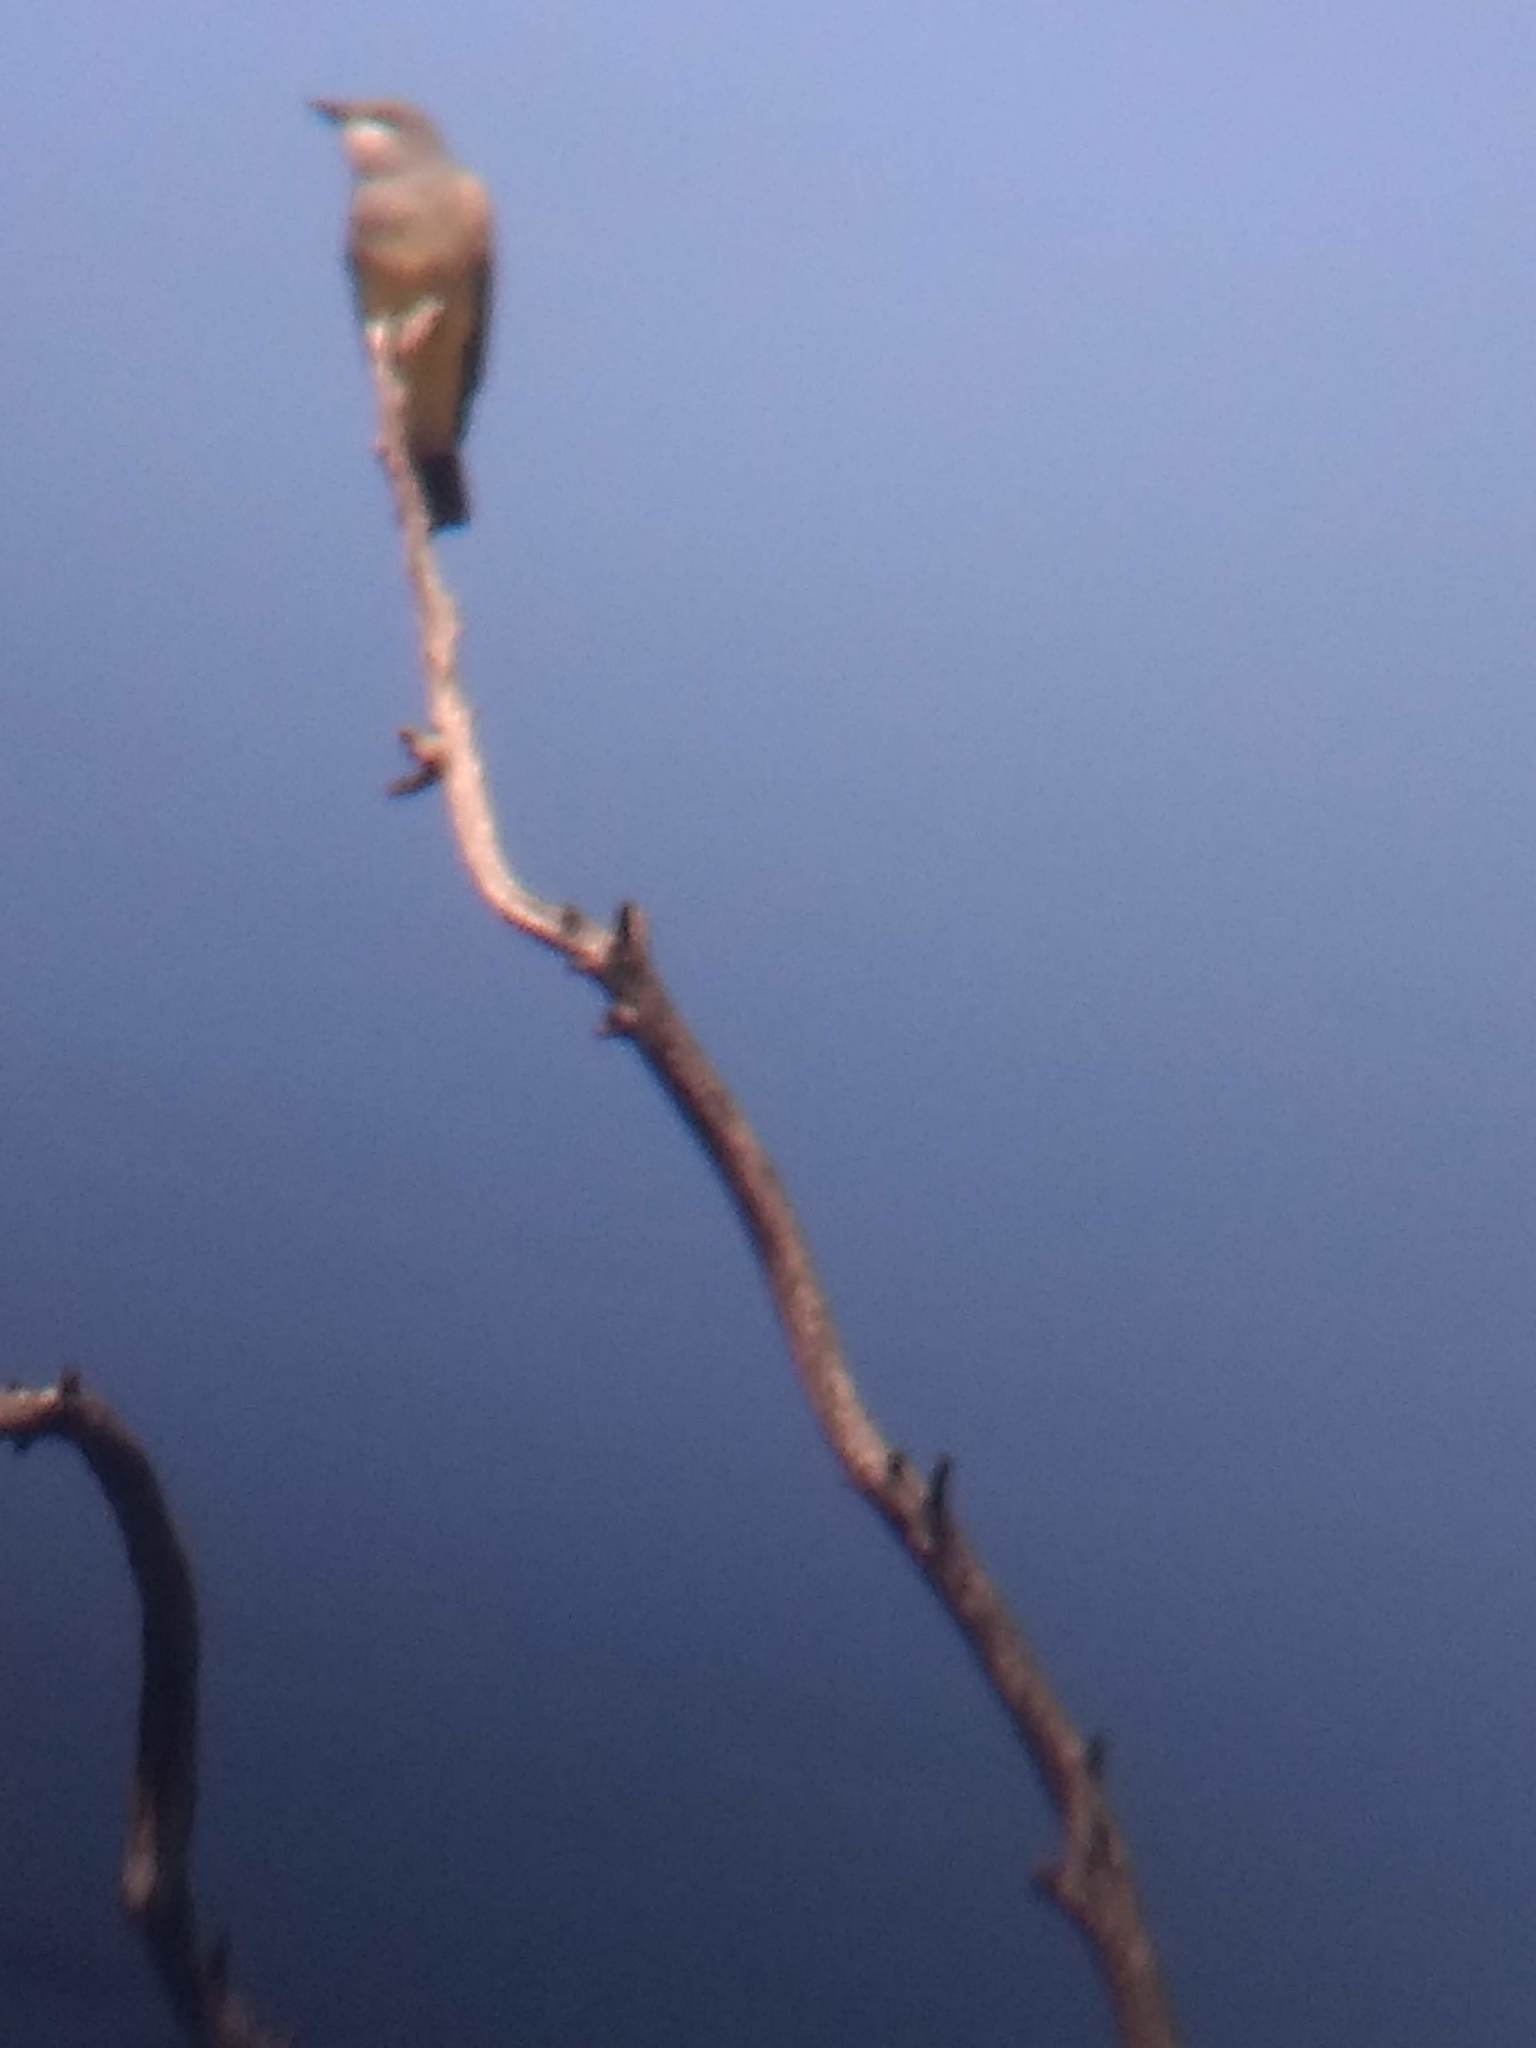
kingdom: Animalia
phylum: Chordata
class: Aves
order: Passeriformes
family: Tyrannidae
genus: Tyrannus
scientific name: Tyrannus vociferans
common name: Cassin's kingbird
